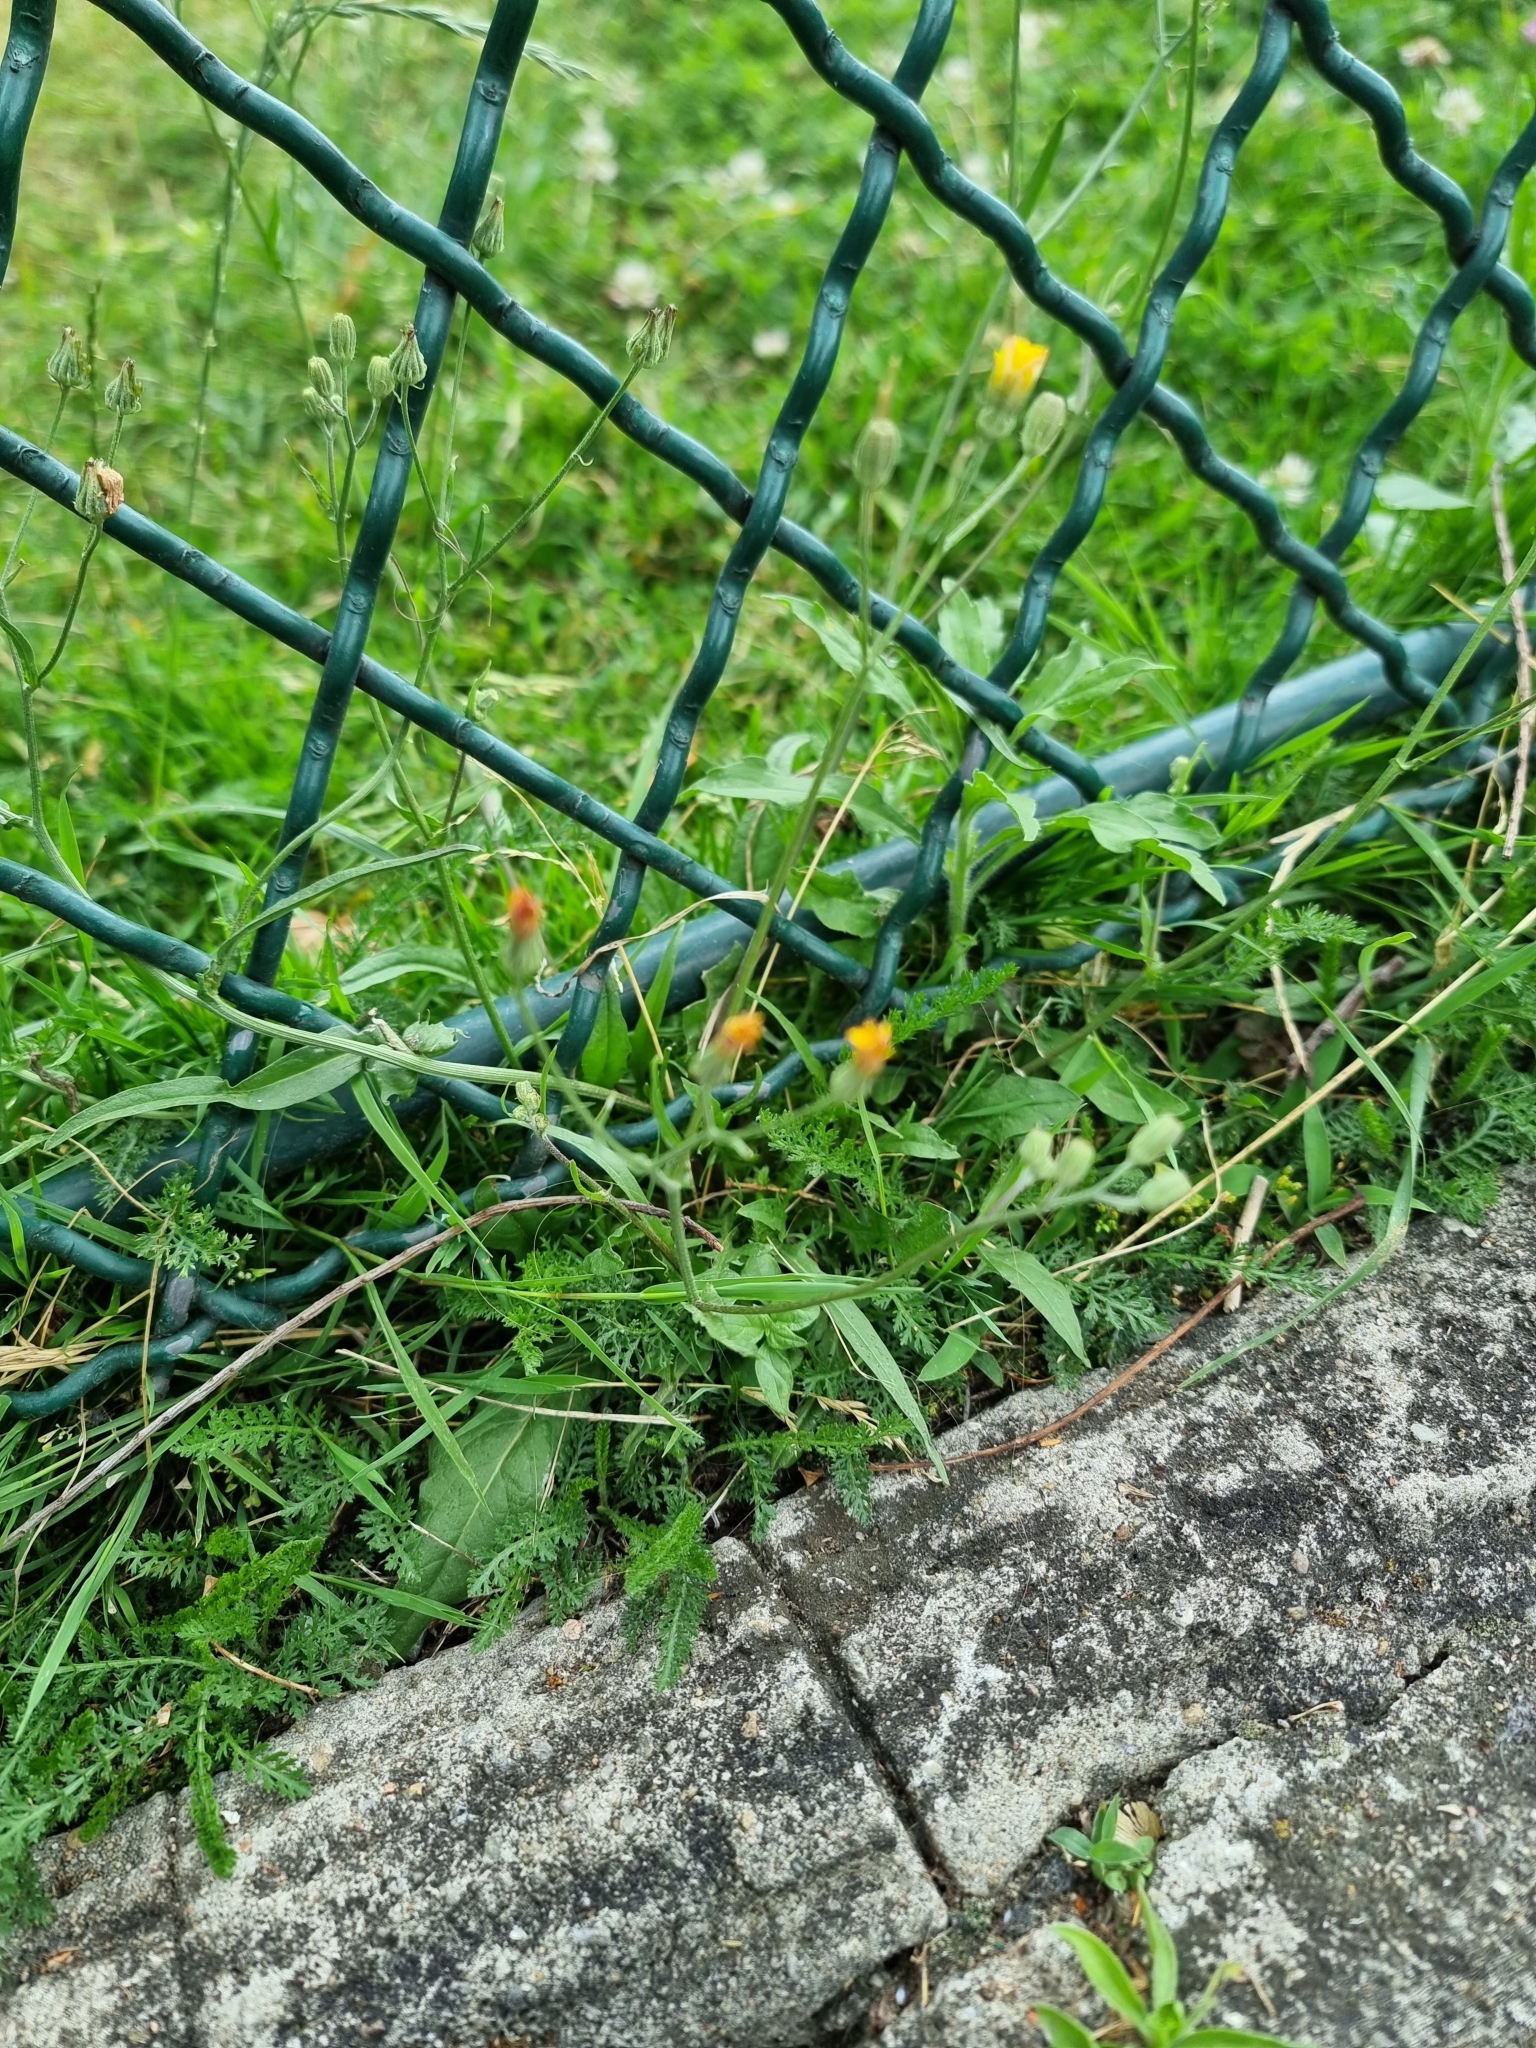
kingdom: Plantae
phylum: Tracheophyta
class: Magnoliopsida
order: Asterales
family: Asteraceae
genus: Crepis
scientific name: Crepis capillaris
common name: Smooth hawksbeard
